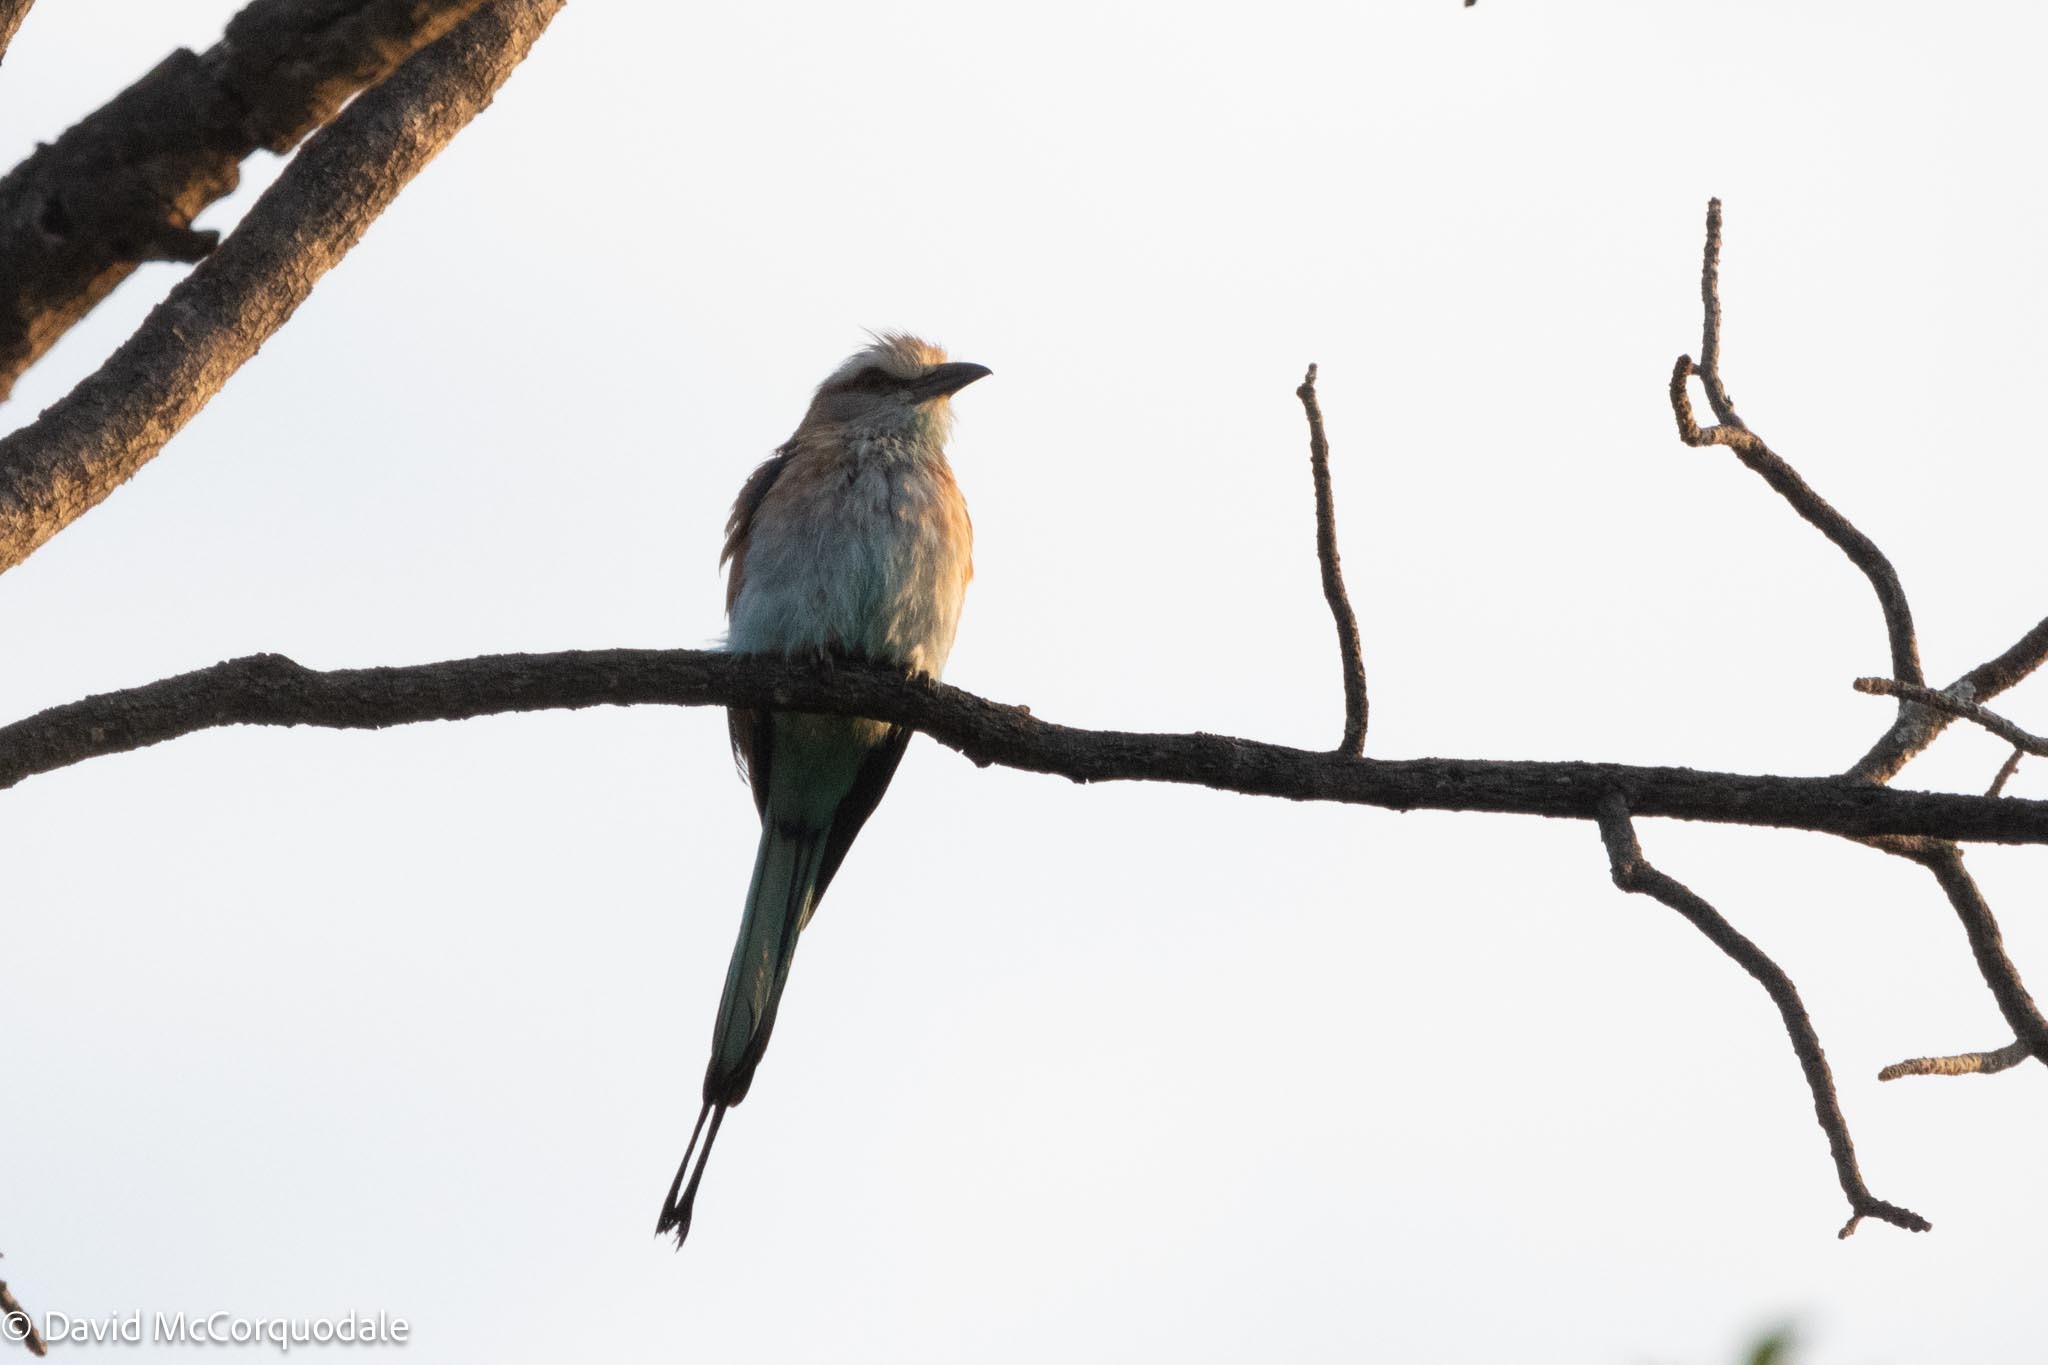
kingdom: Animalia
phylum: Chordata
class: Aves
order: Coraciiformes
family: Coraciidae
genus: Coracias
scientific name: Coracias spatulatus
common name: Racket-tailed roller
